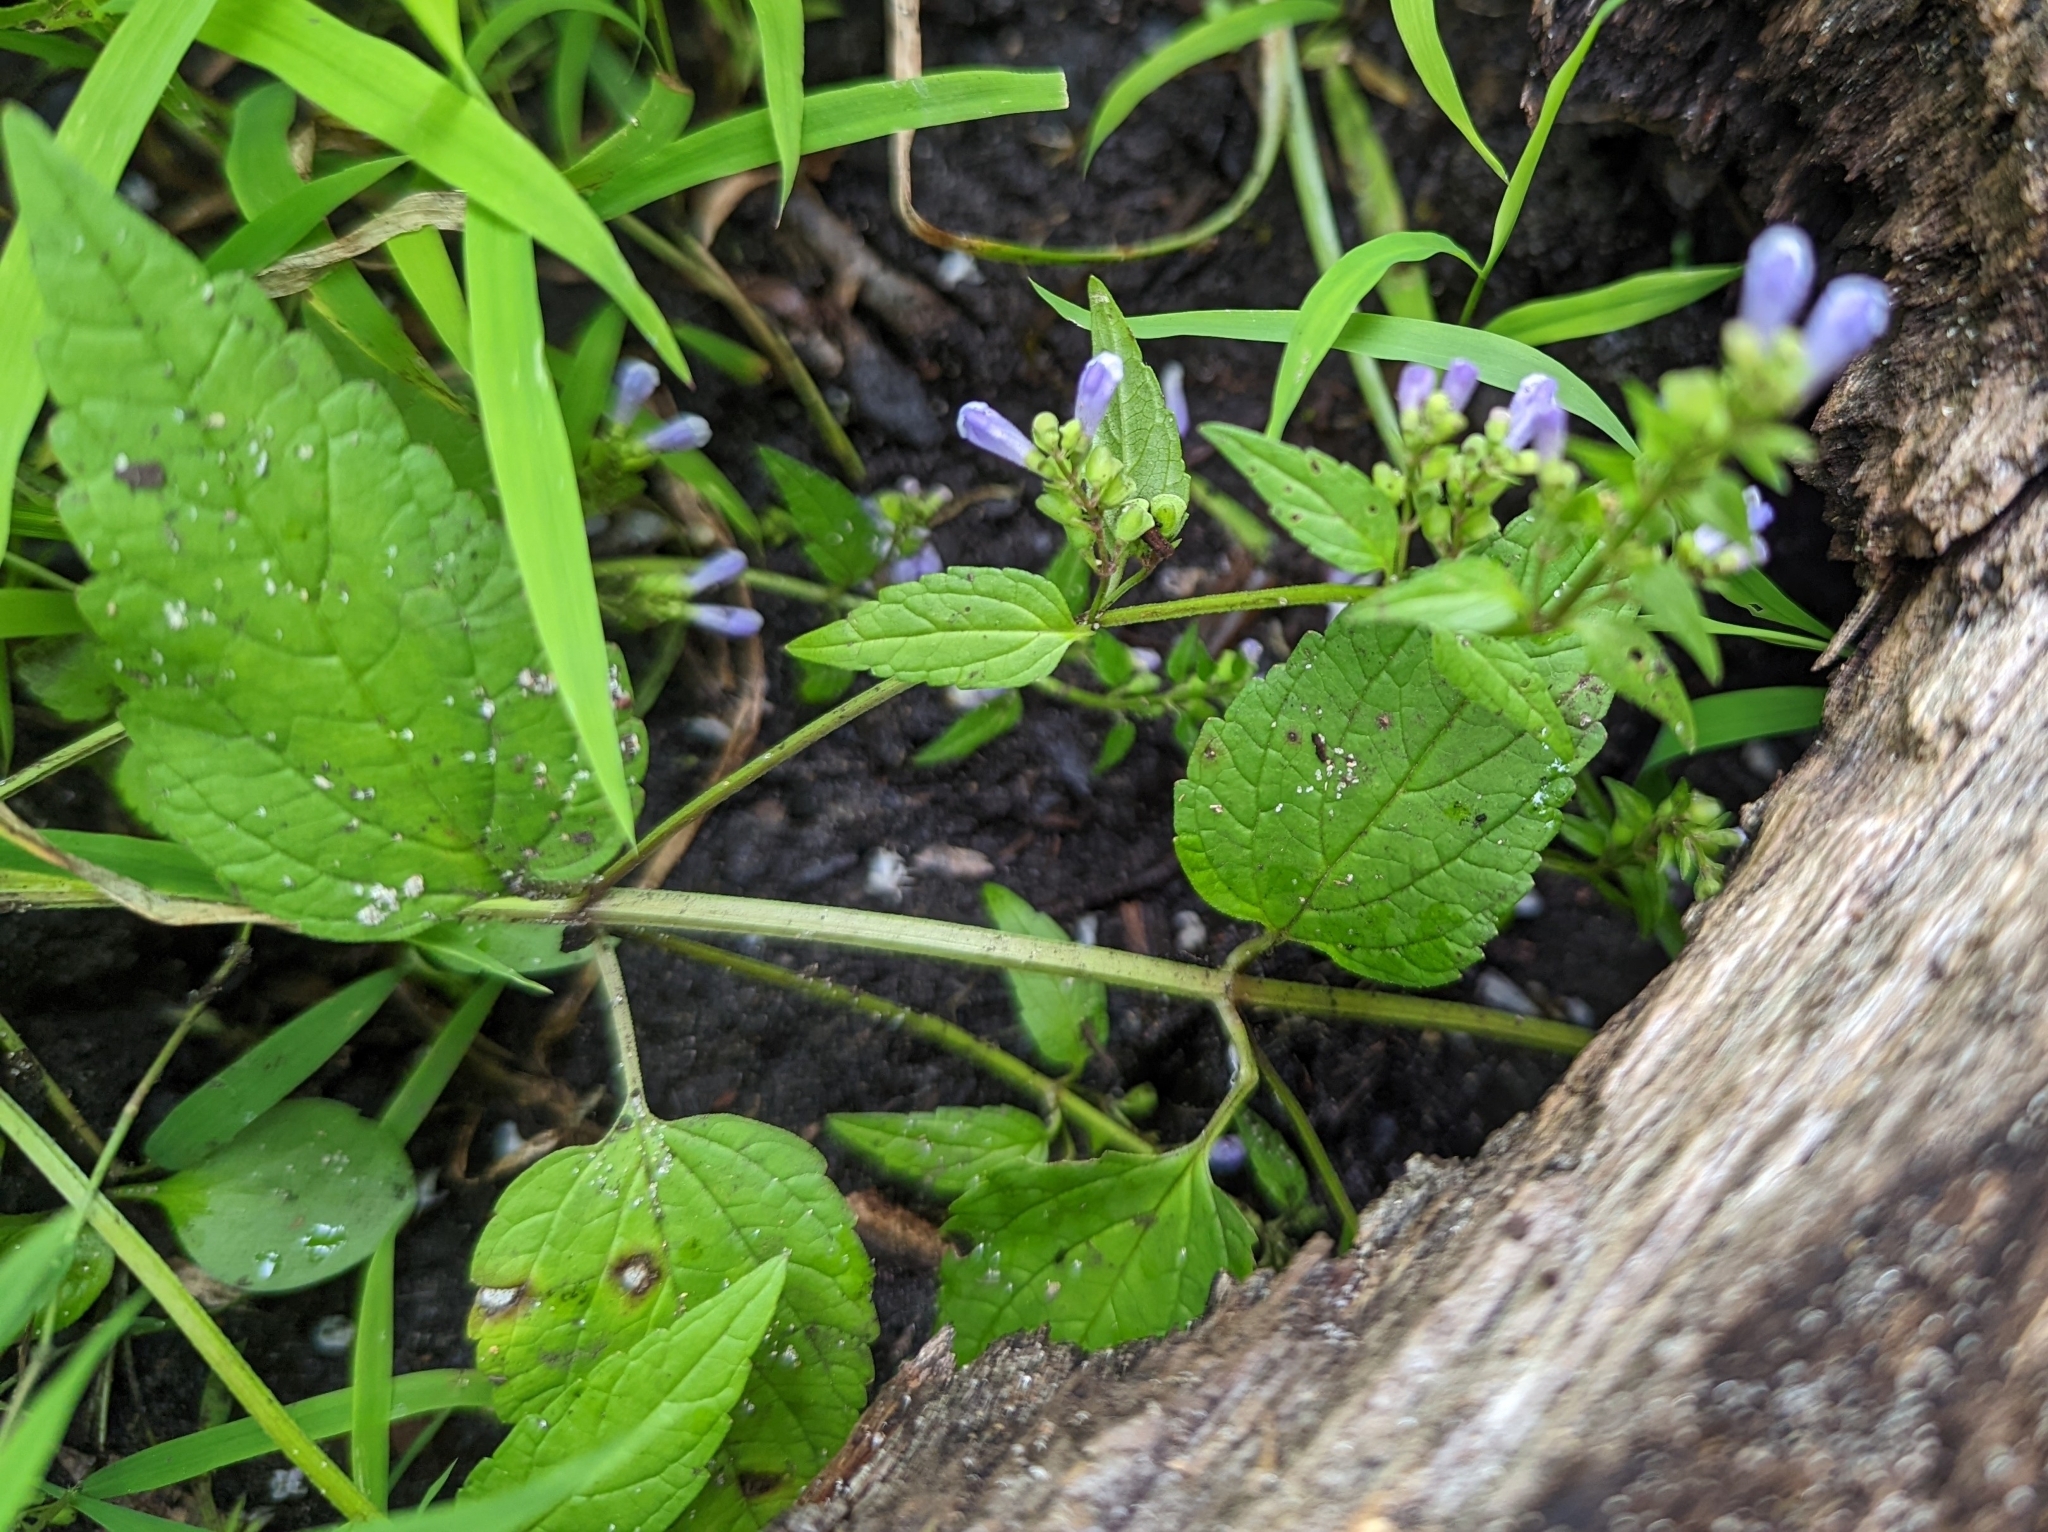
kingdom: Plantae
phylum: Tracheophyta
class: Magnoliopsida
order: Lamiales
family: Lamiaceae
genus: Scutellaria
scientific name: Scutellaria lateriflora
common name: Blue skullcap
